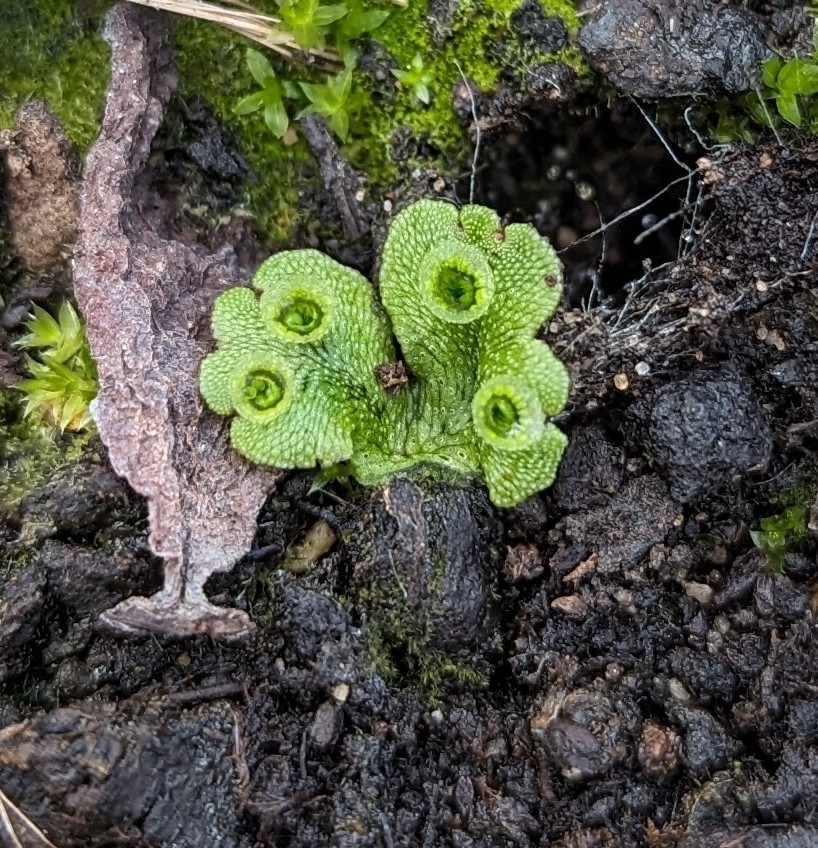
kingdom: Plantae
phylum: Marchantiophyta
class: Marchantiopsida
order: Marchantiales
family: Marchantiaceae
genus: Marchantia
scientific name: Marchantia polymorpha
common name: Common liverwort
